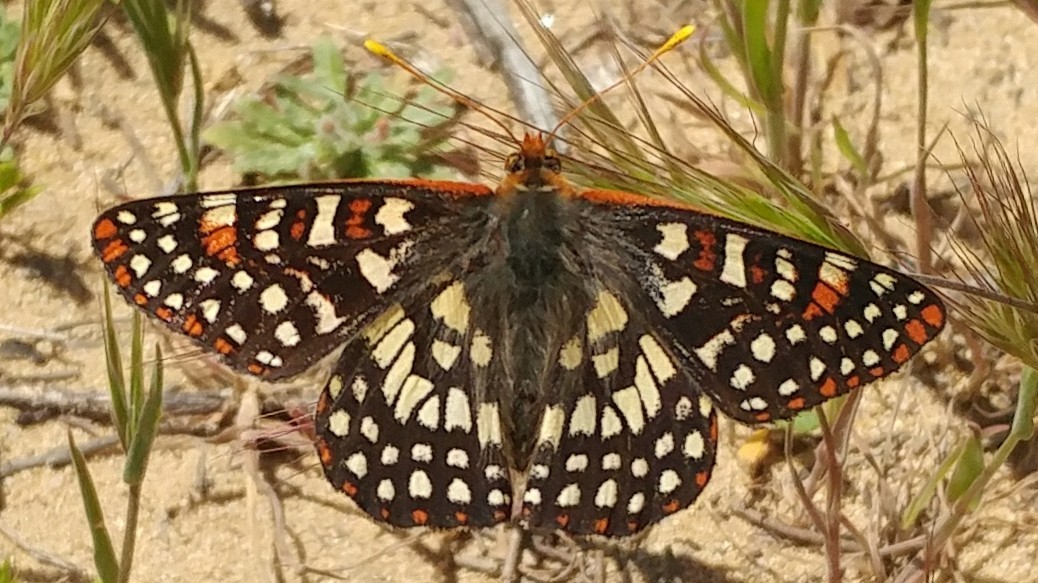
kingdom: Animalia
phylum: Arthropoda
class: Insecta
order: Lepidoptera
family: Nymphalidae
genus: Occidryas
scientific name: Occidryas chalcedona
